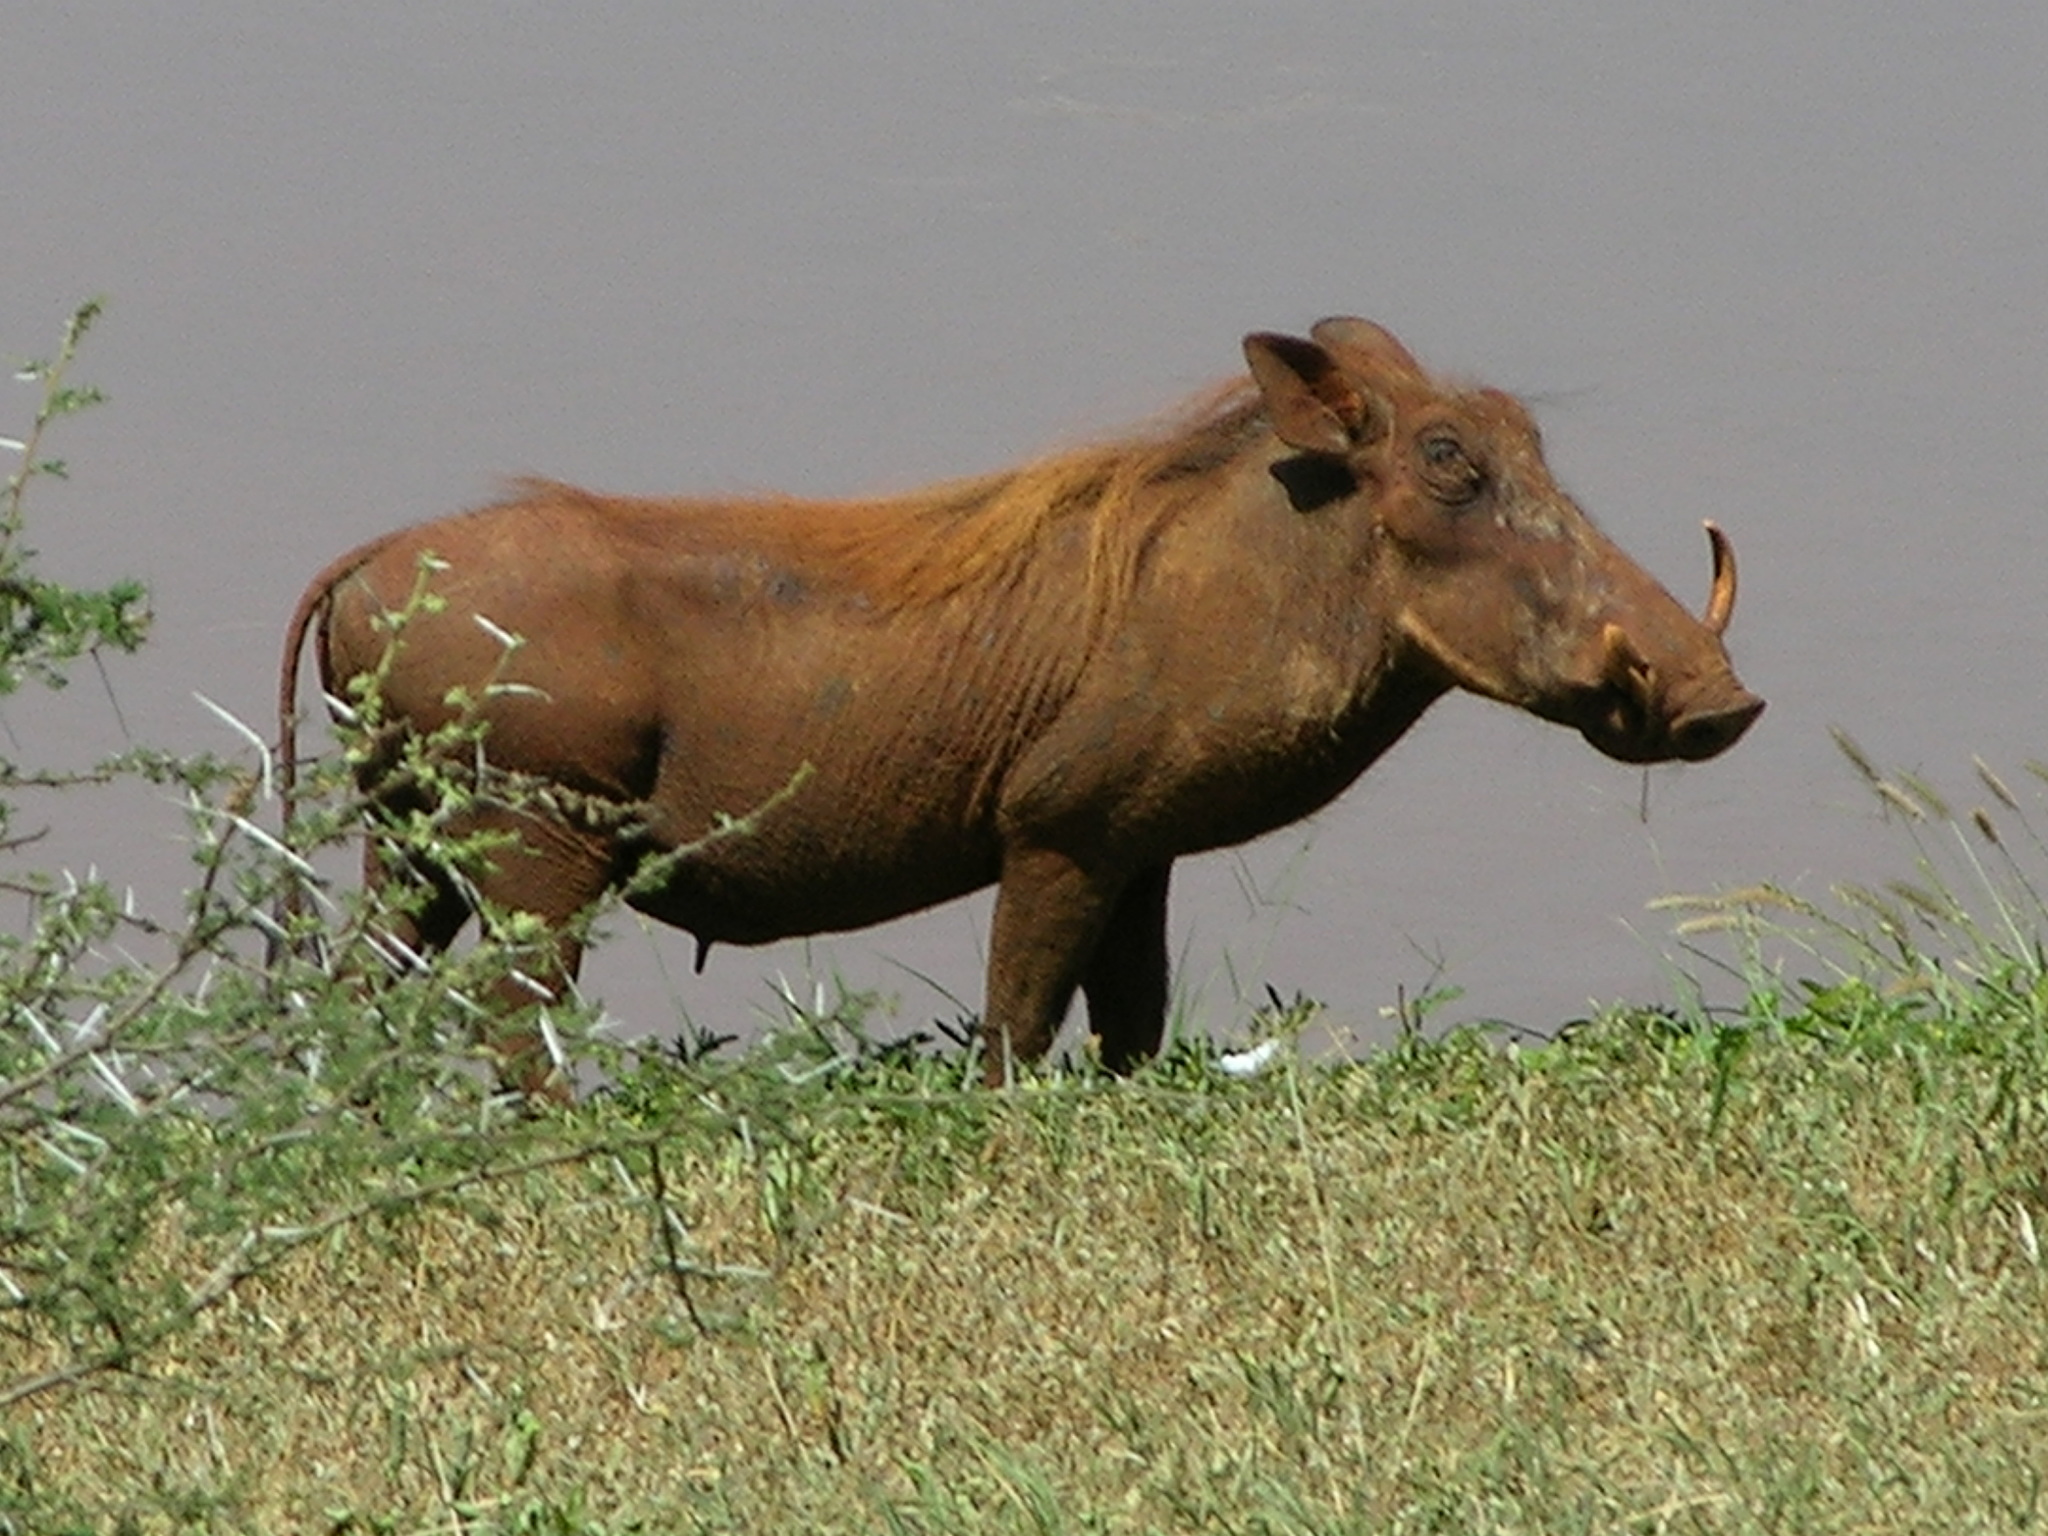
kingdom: Animalia
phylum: Chordata
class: Mammalia
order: Artiodactyla
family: Suidae
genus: Phacochoerus
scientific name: Phacochoerus africanus
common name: Common warthog
